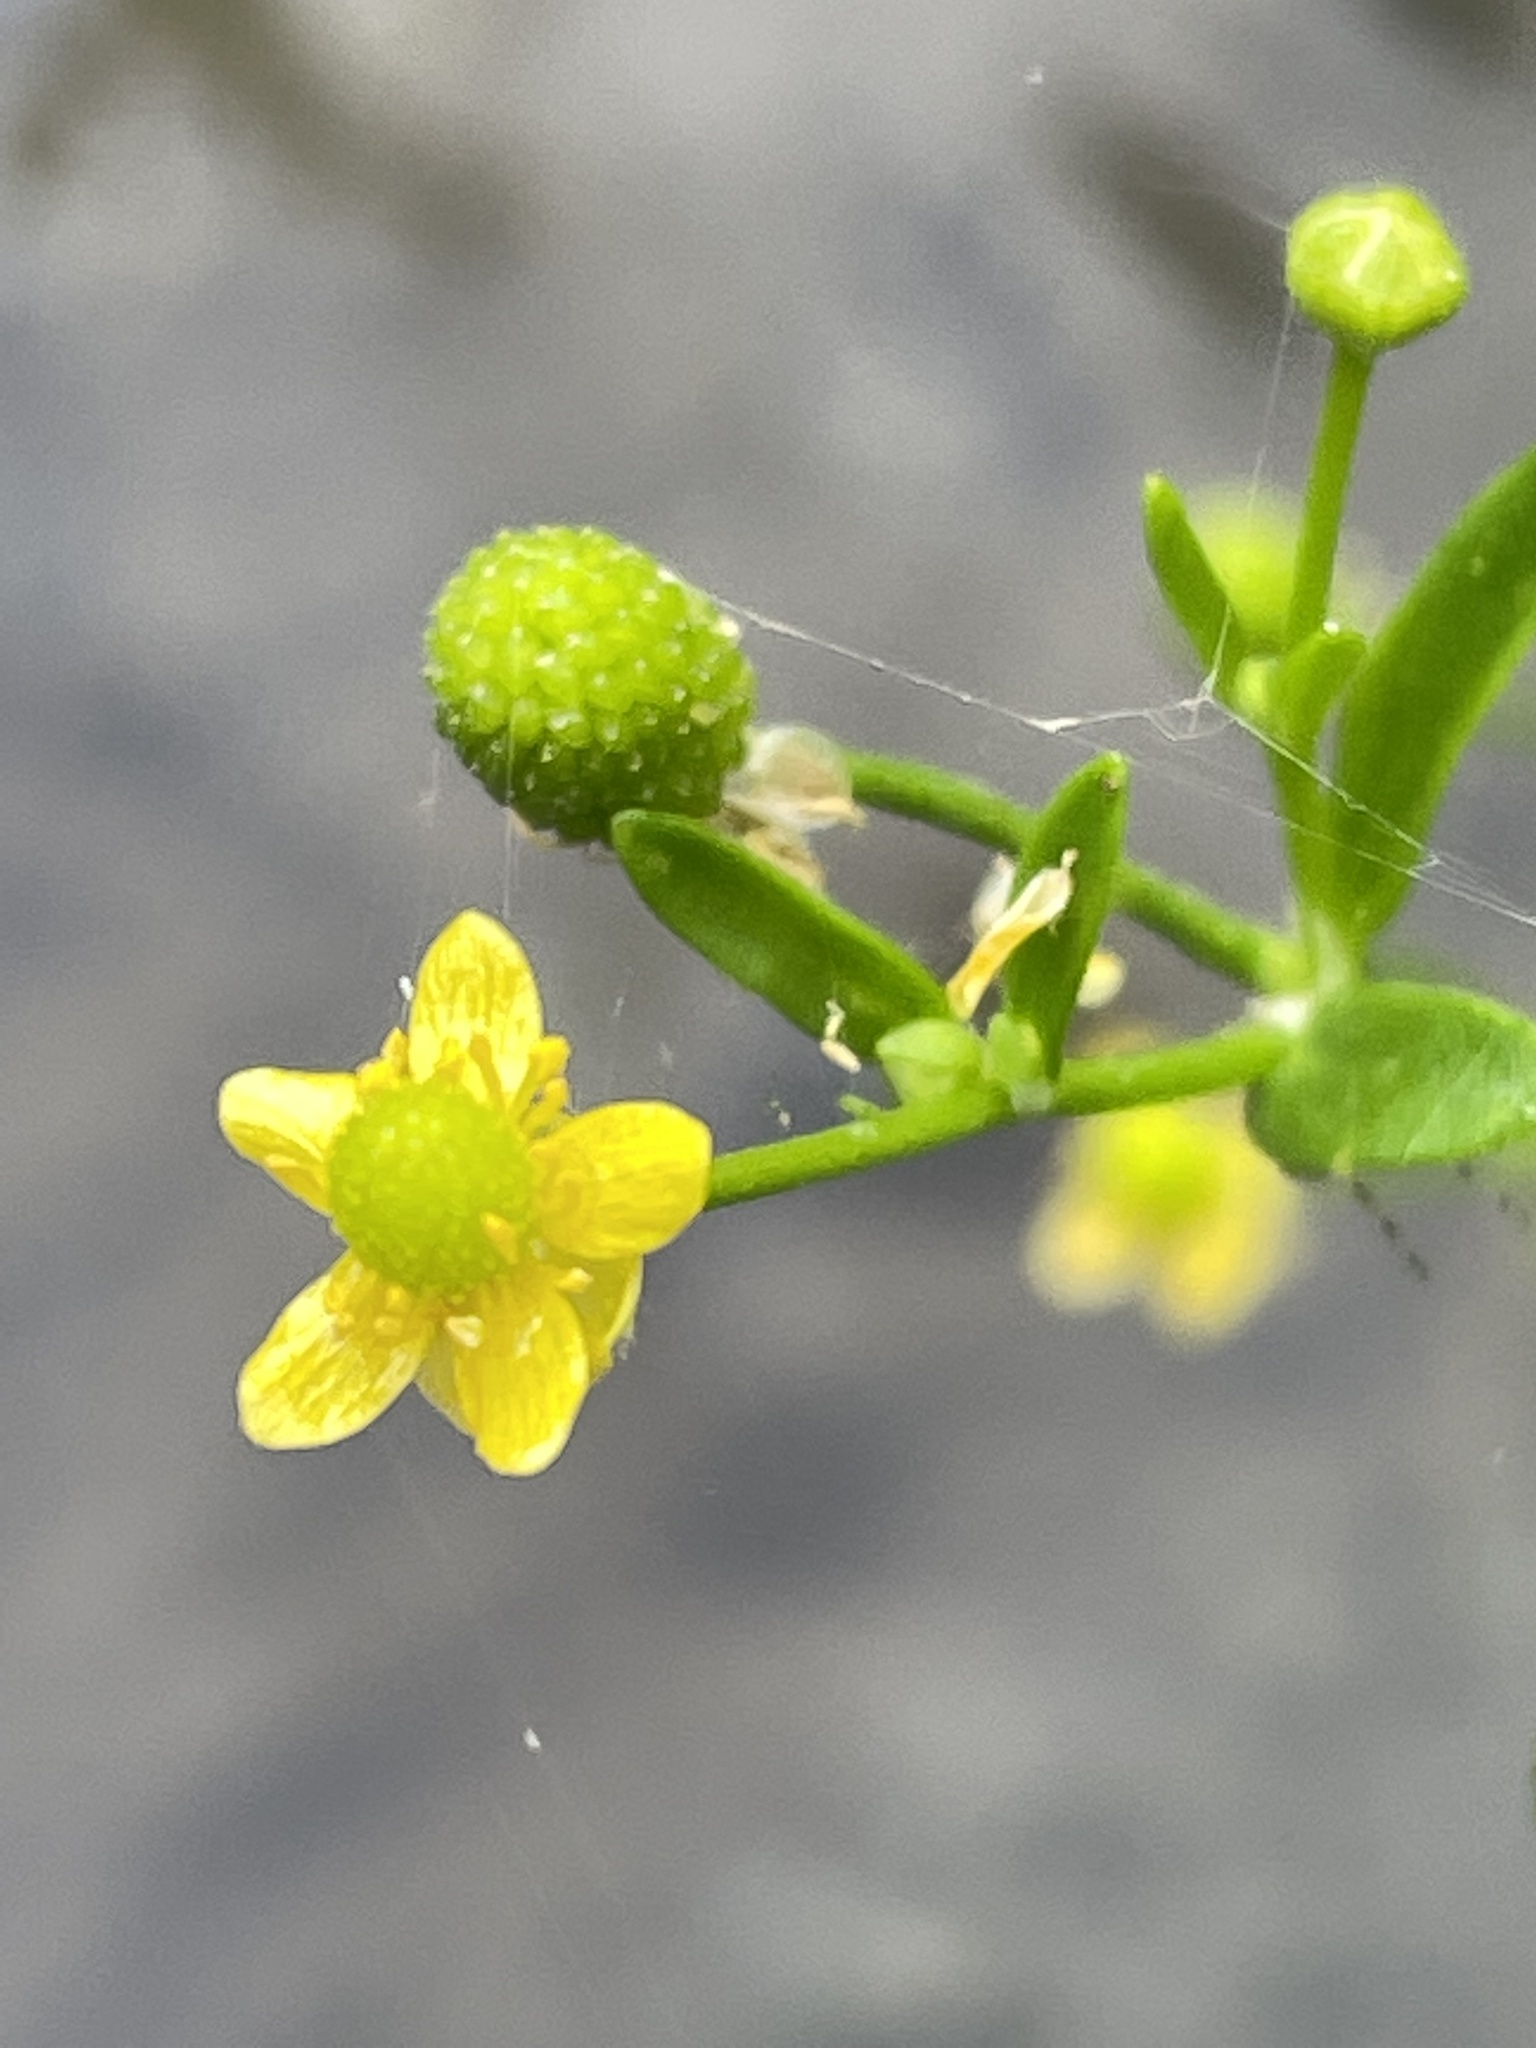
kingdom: Plantae
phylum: Tracheophyta
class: Magnoliopsida
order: Ranunculales
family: Ranunculaceae
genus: Ranunculus
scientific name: Ranunculus sceleratus
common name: Celery-leaved buttercup
